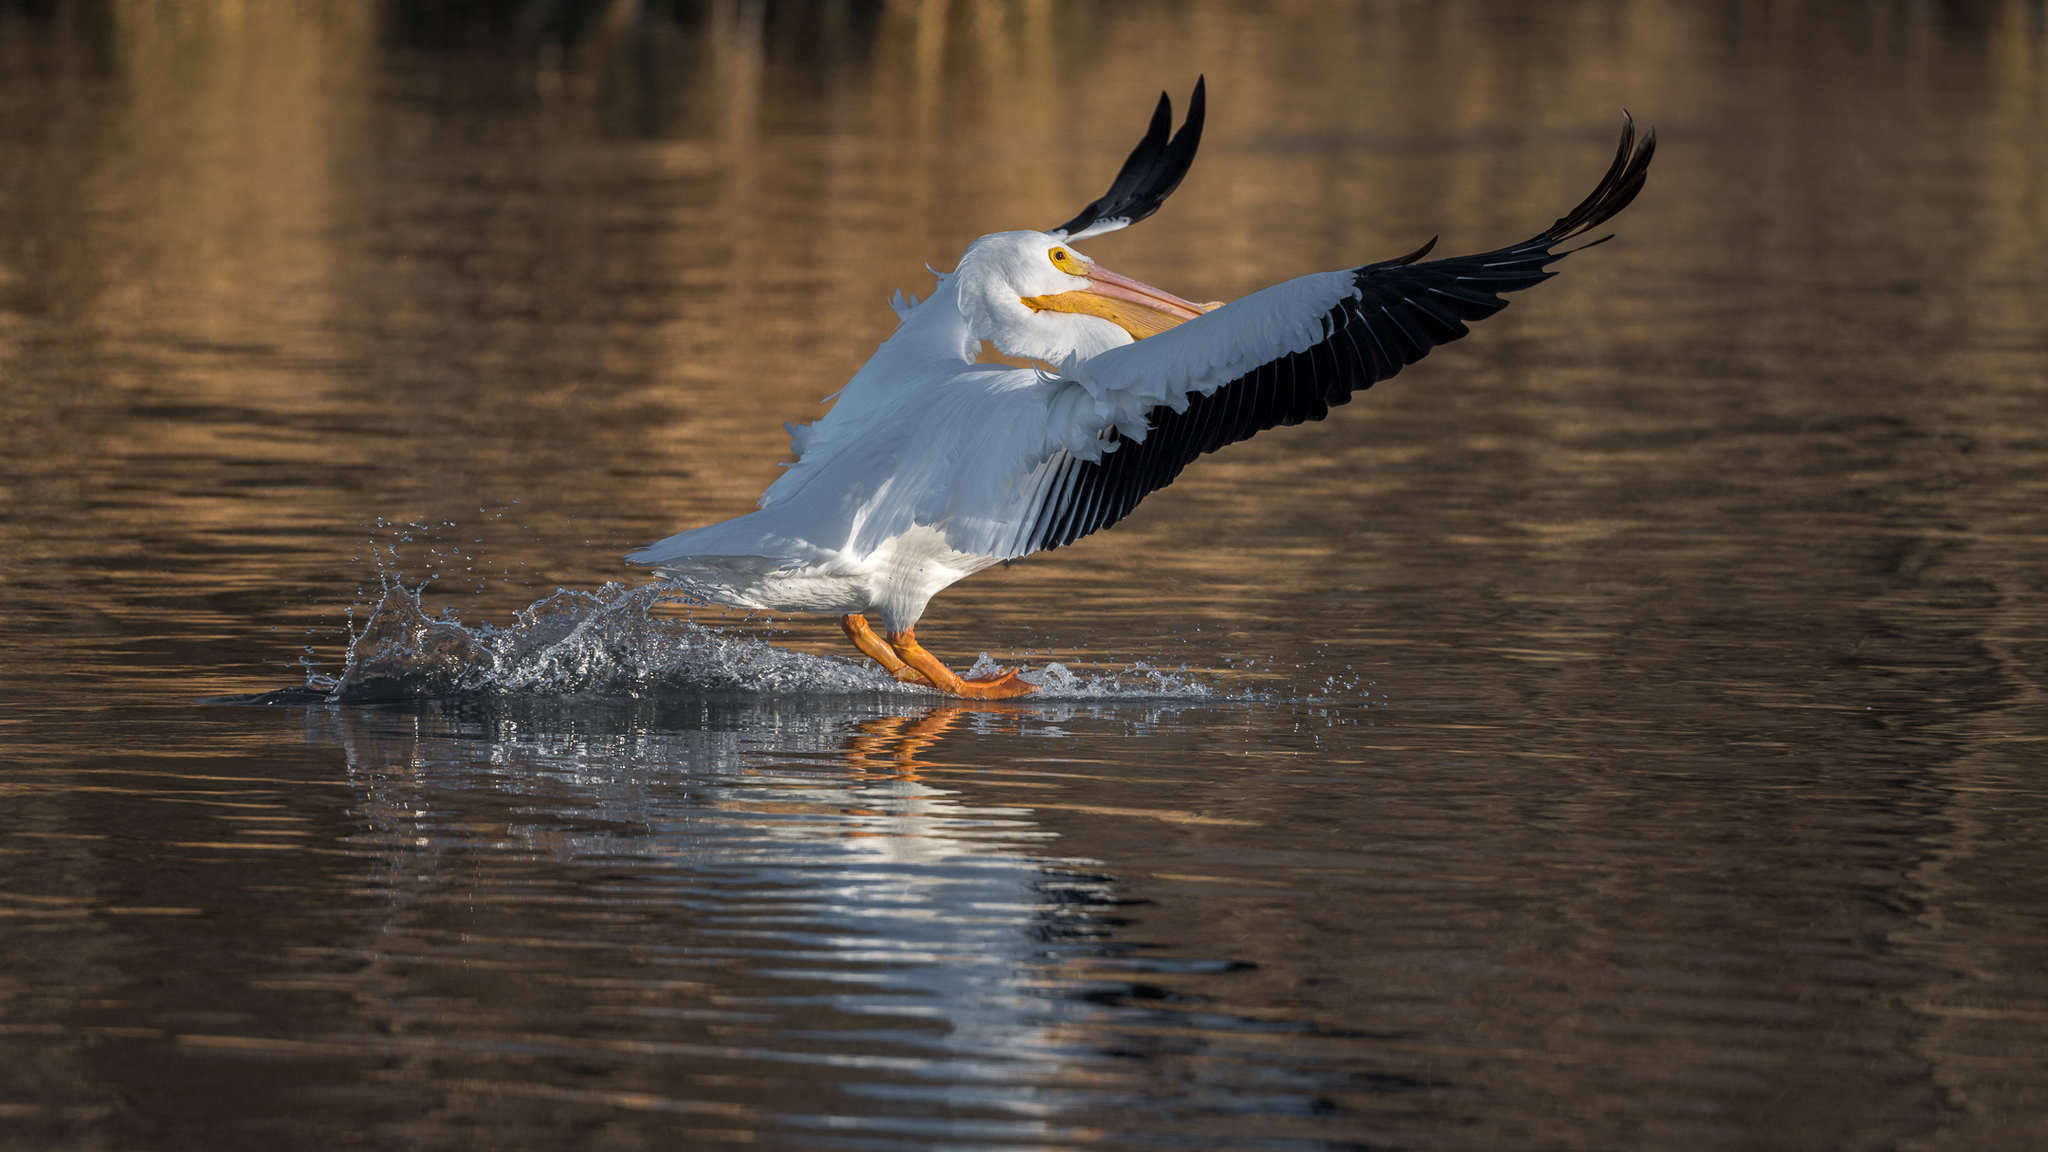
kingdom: Animalia
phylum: Chordata
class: Aves
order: Pelecaniformes
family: Pelecanidae
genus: Pelecanus
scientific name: Pelecanus erythrorhynchos
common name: American white pelican
